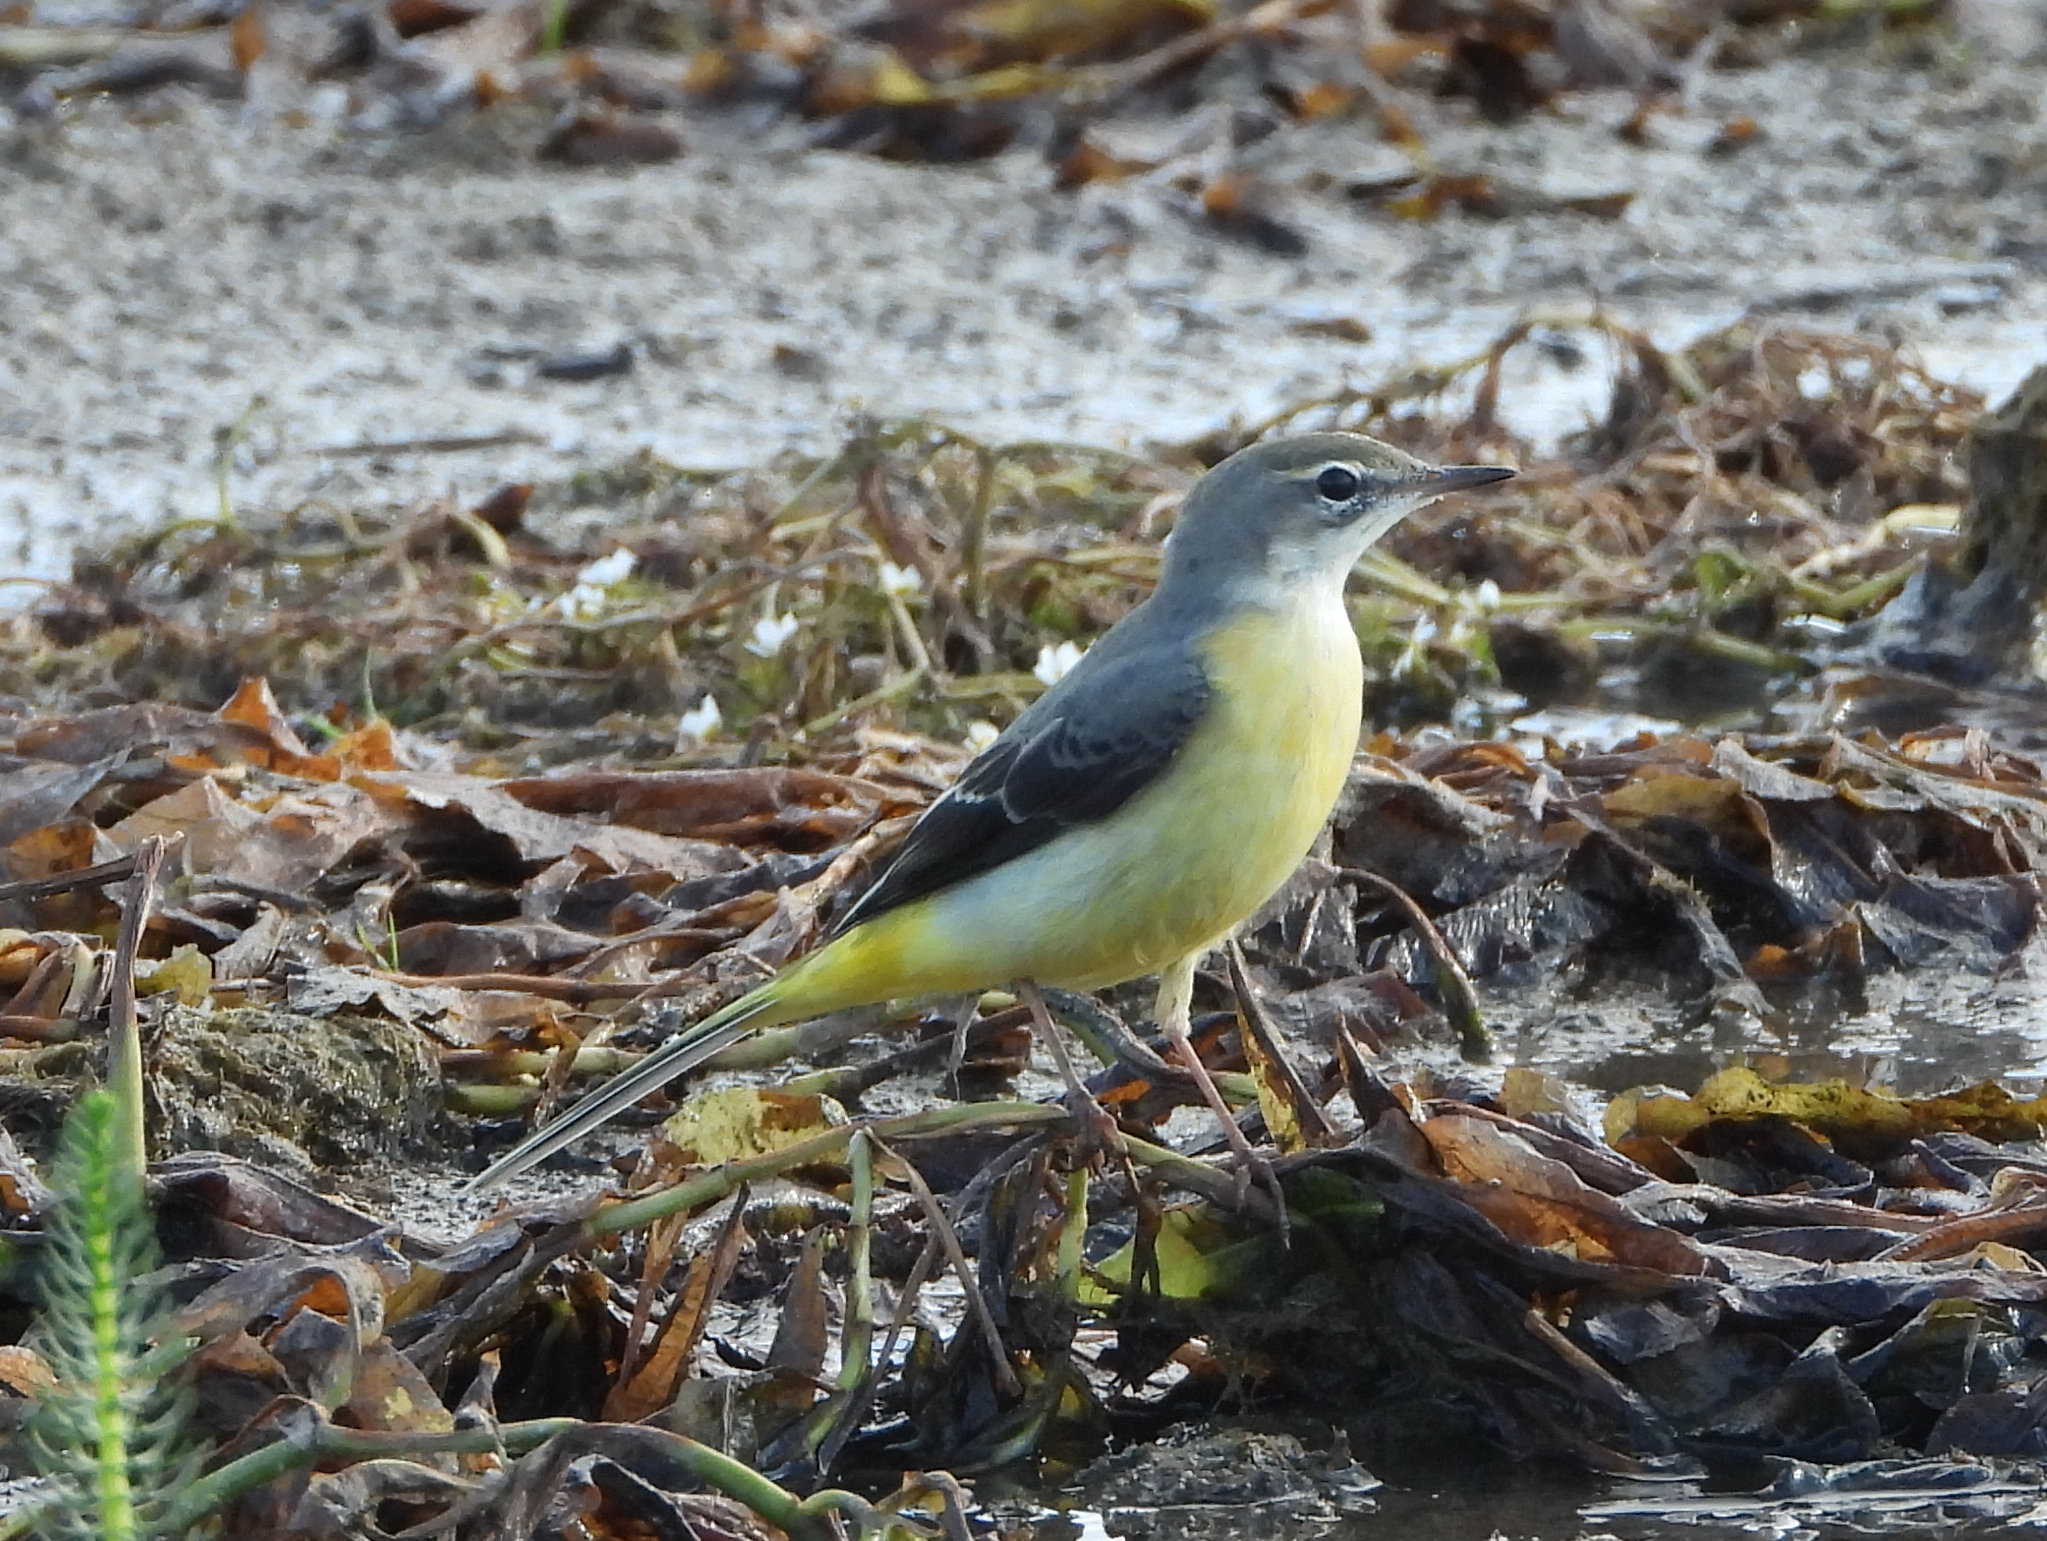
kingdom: Animalia
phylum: Chordata
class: Aves
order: Passeriformes
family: Motacillidae
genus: Motacilla
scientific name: Motacilla cinerea
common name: Grey wagtail
